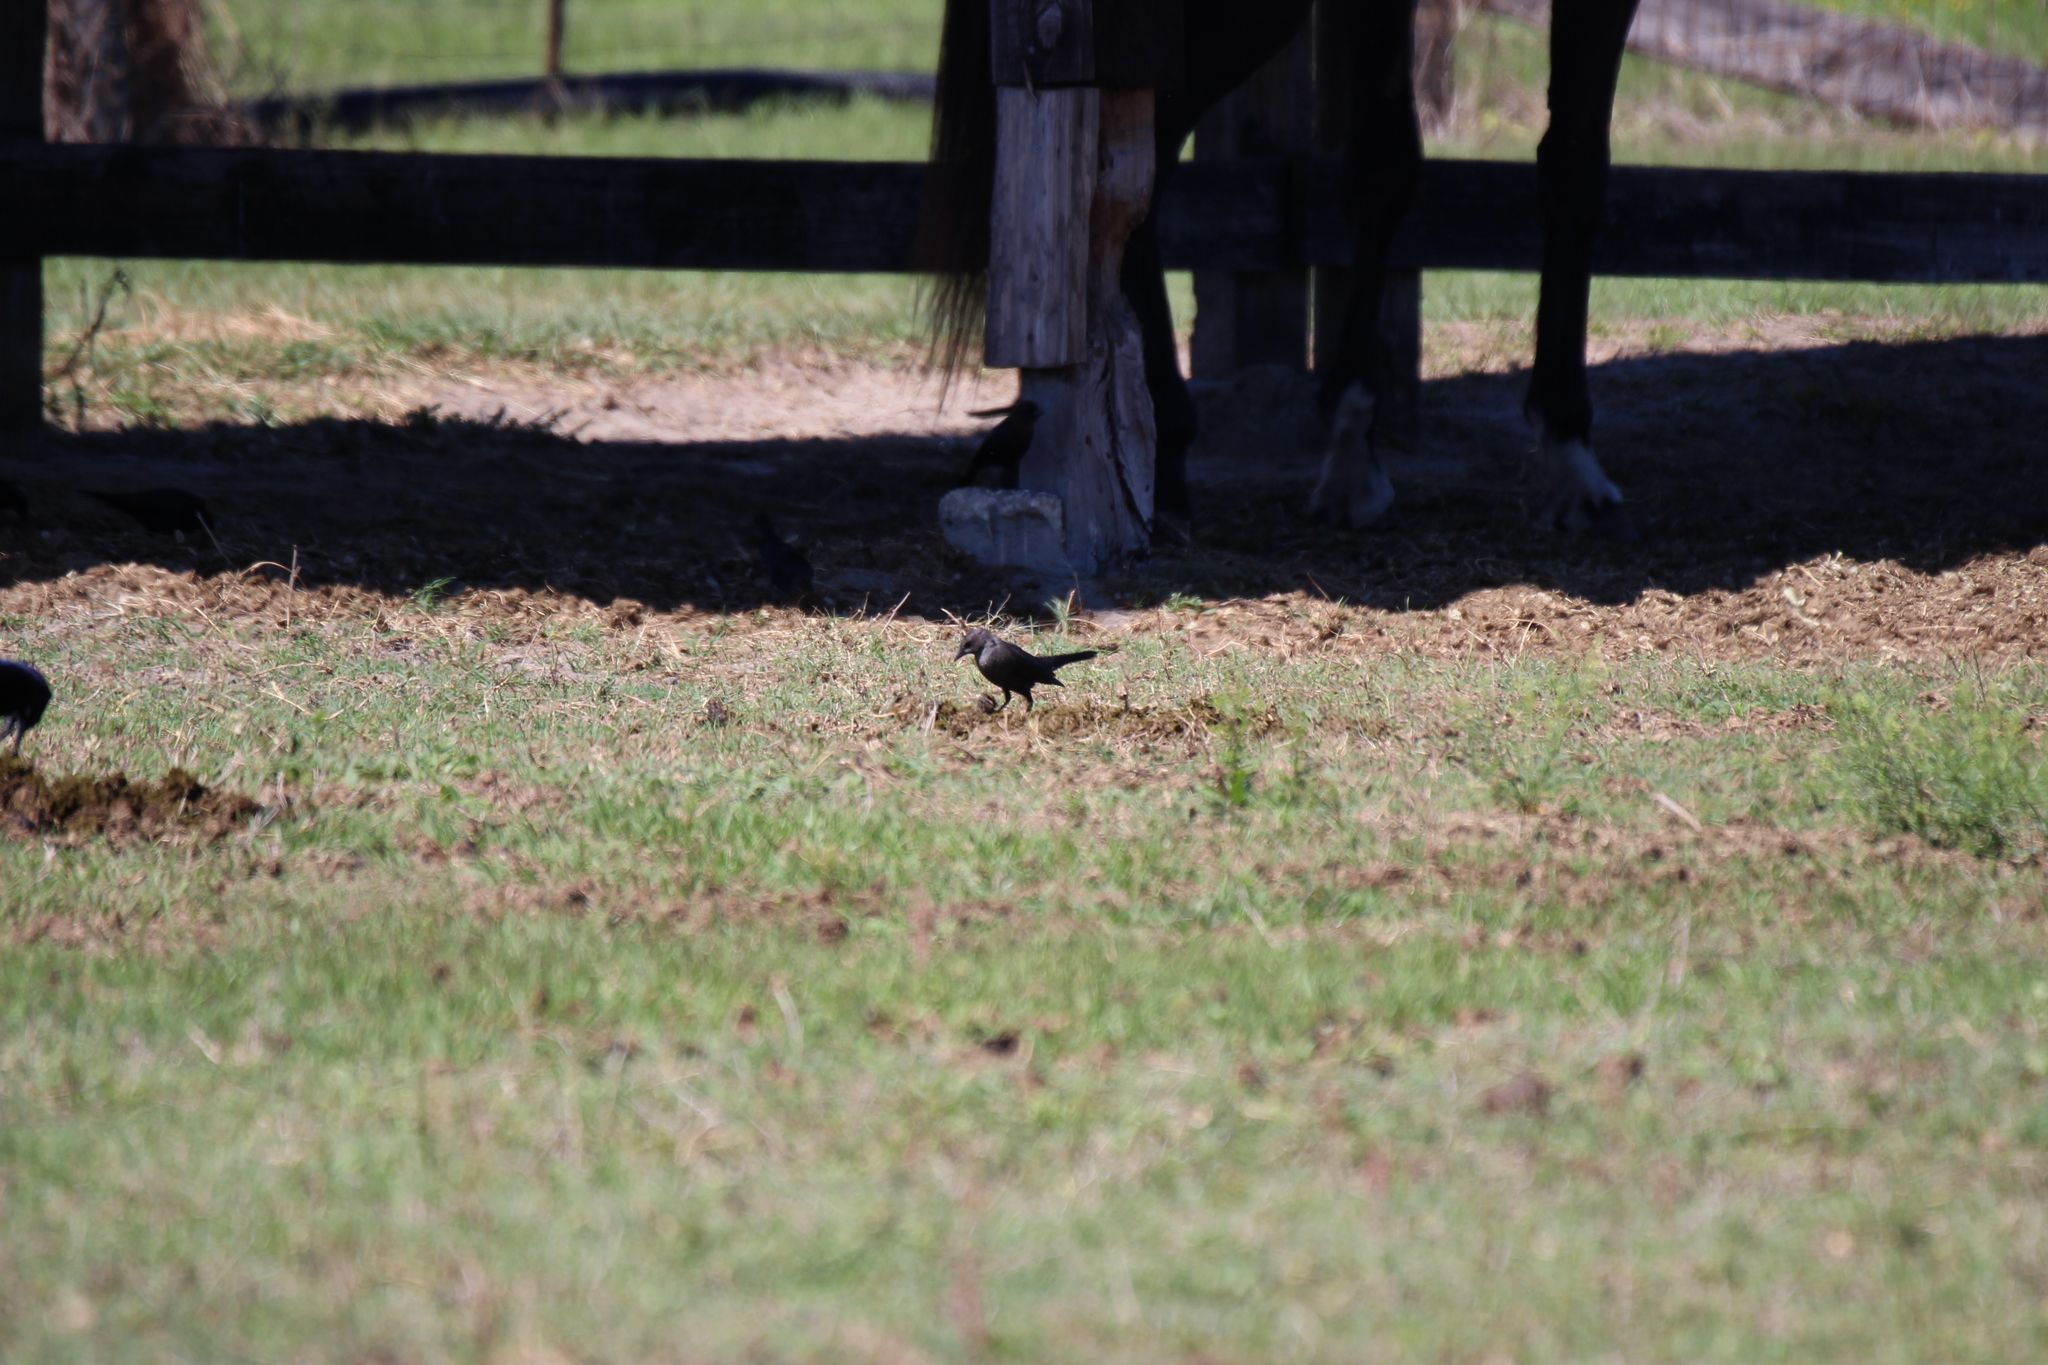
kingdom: Animalia
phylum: Chordata
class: Aves
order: Passeriformes
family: Icteridae
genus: Euphagus
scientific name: Euphagus cyanocephalus
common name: Brewer's blackbird
